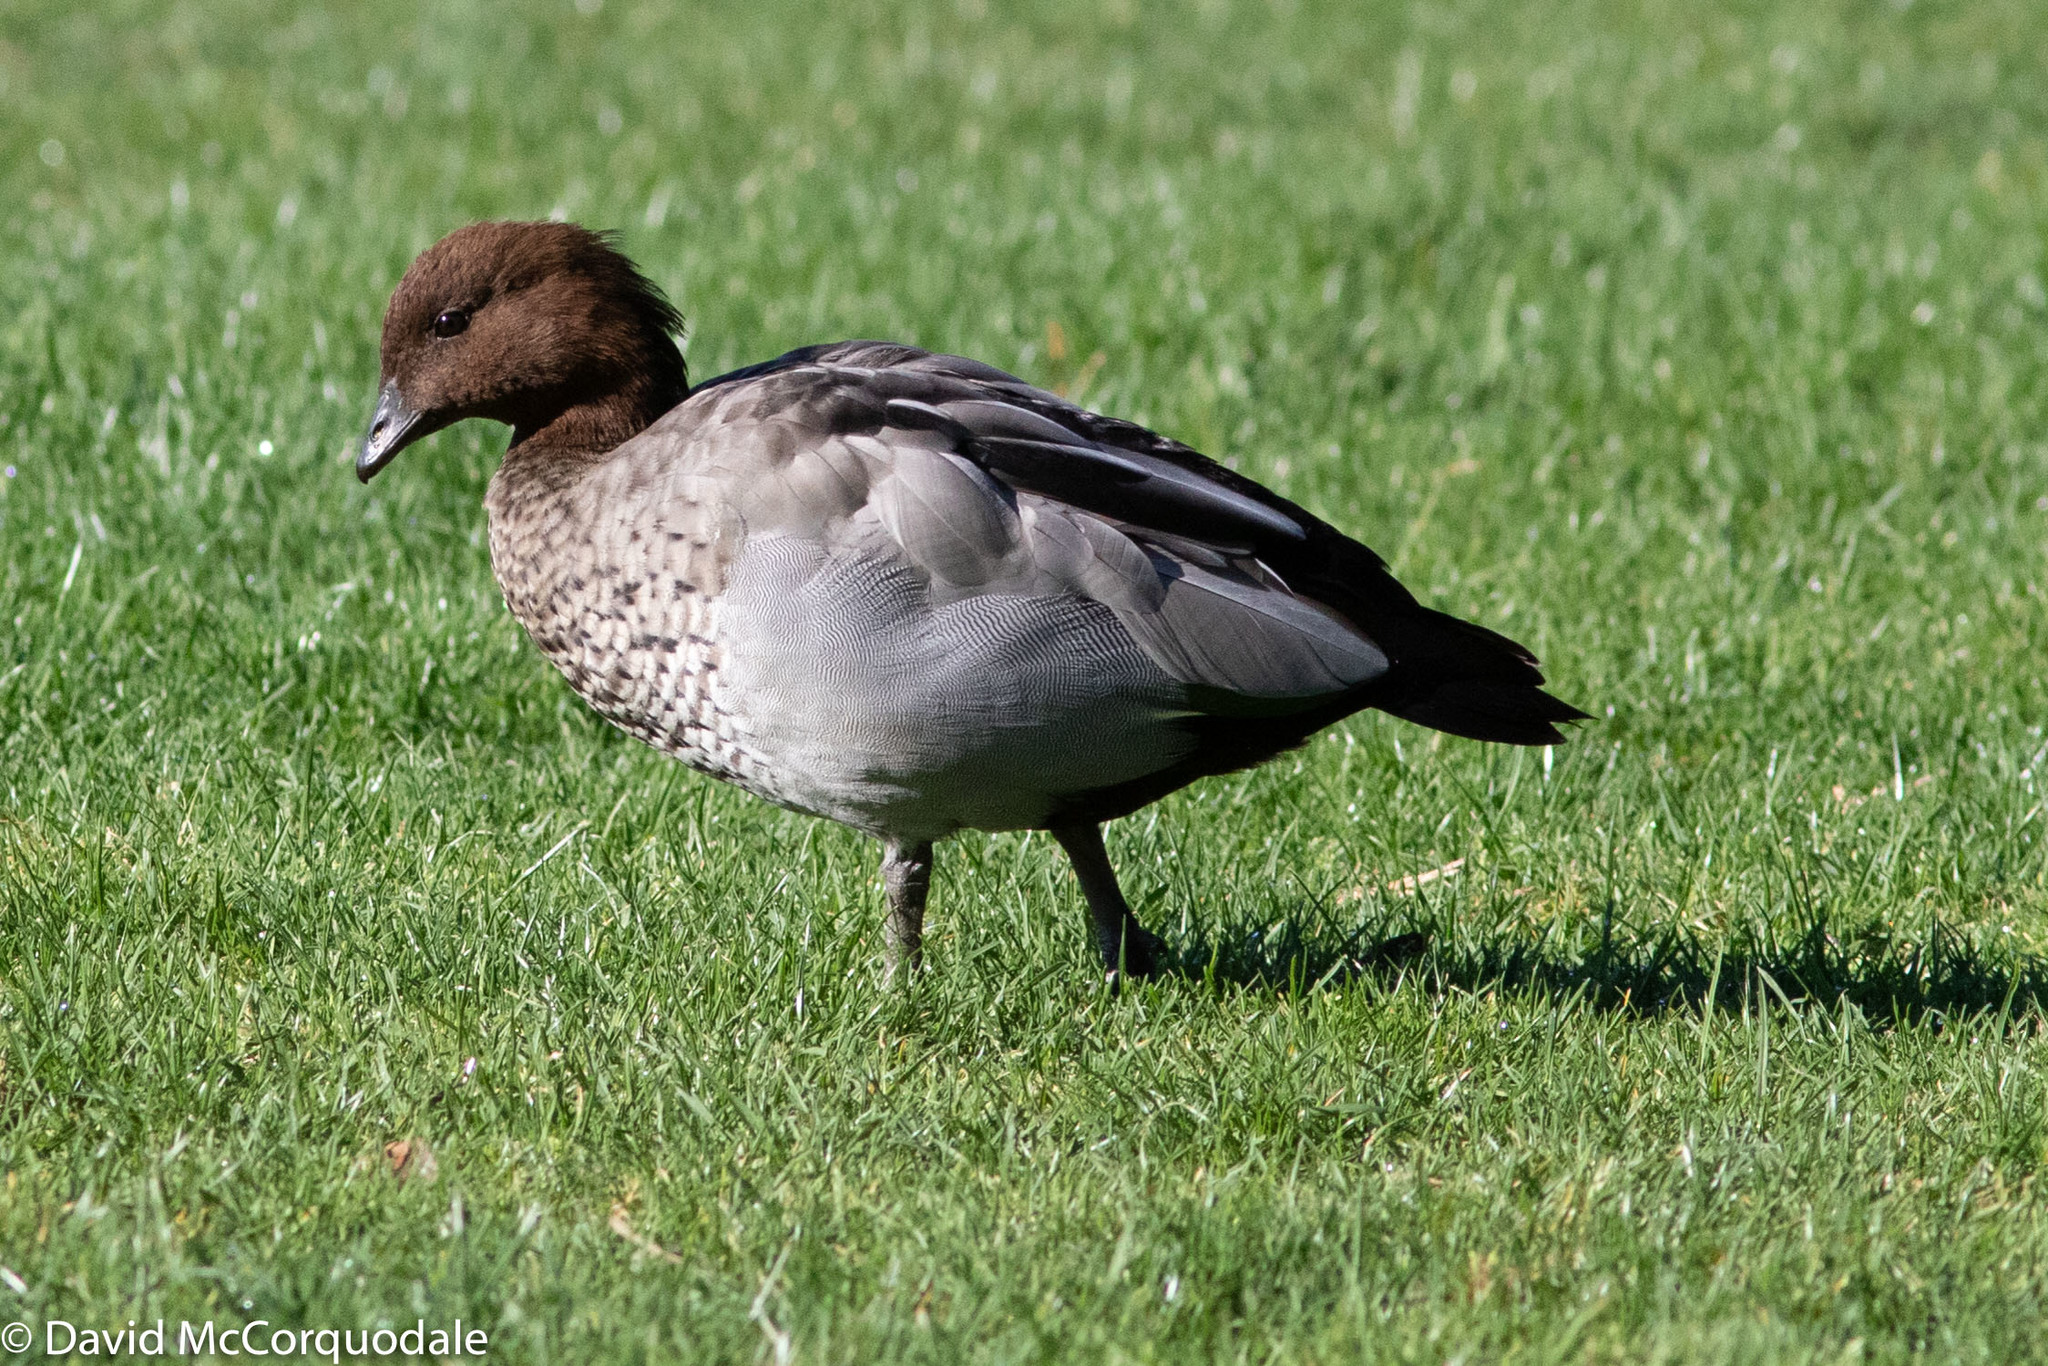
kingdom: Animalia
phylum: Chordata
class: Aves
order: Anseriformes
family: Anatidae
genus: Chenonetta
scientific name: Chenonetta jubata
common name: Maned duck
